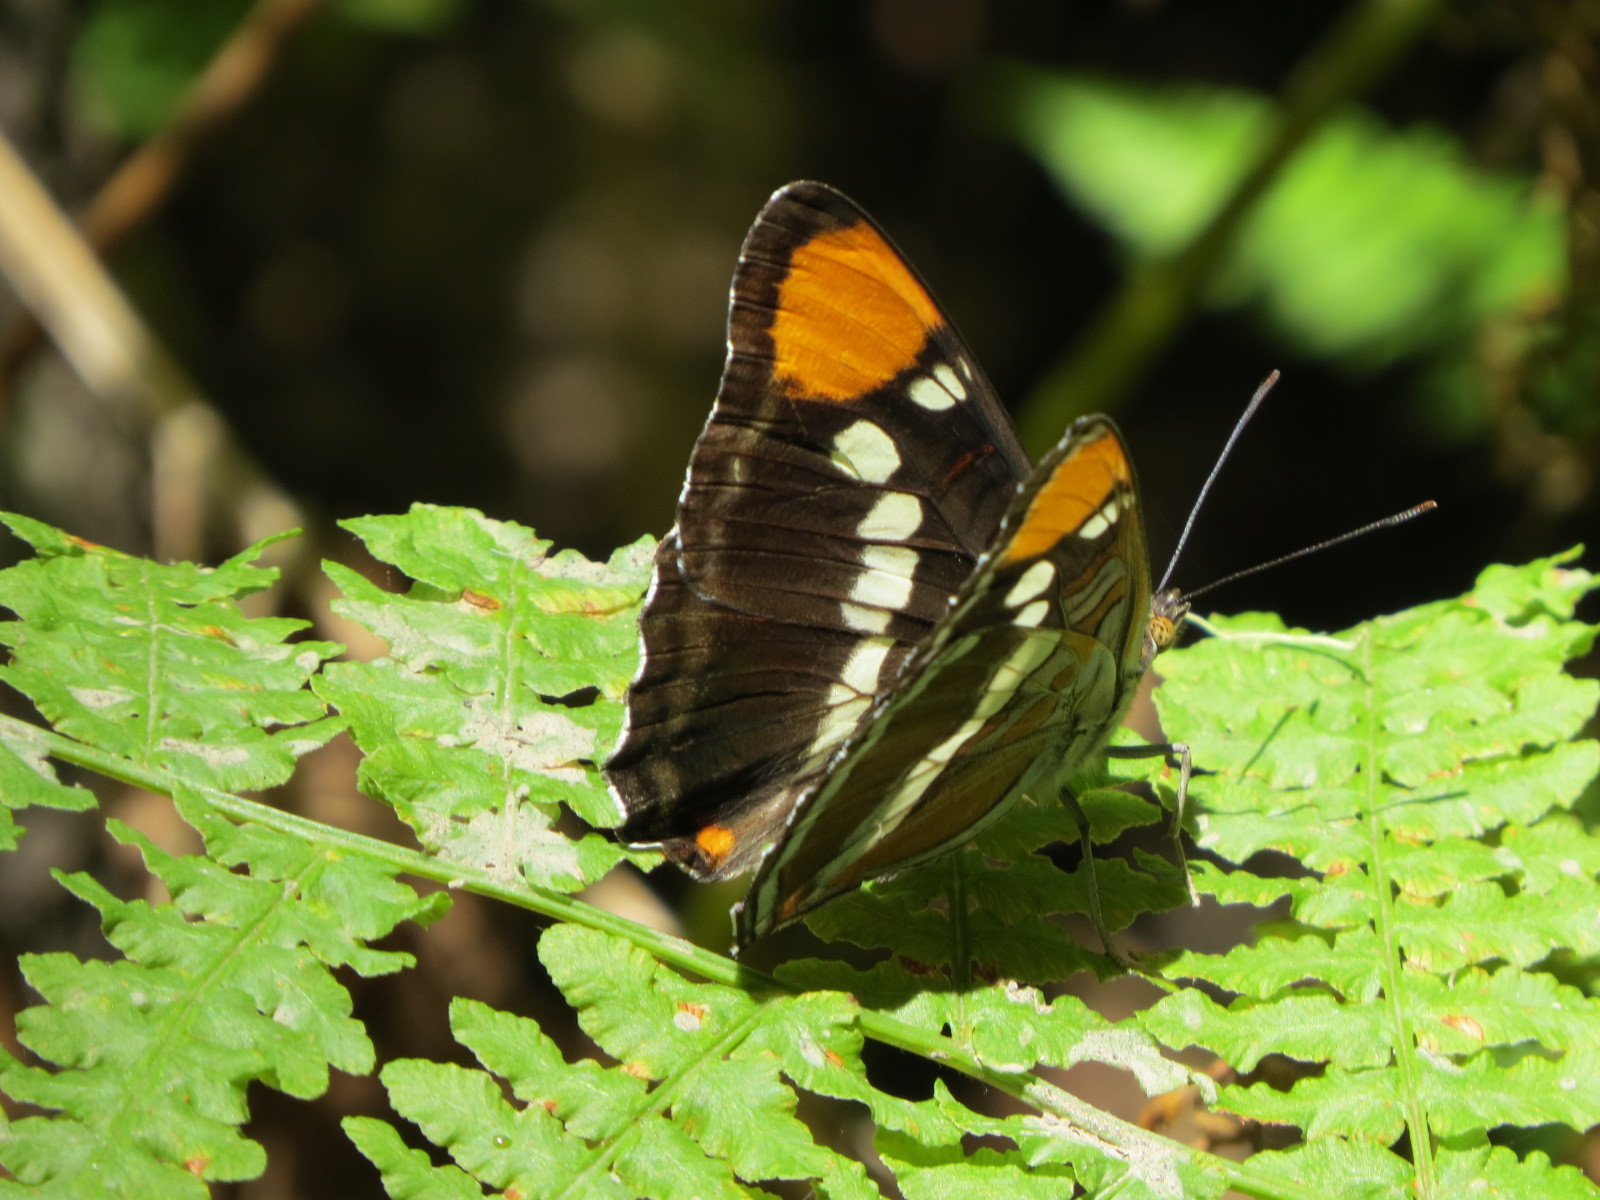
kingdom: Animalia
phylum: Arthropoda
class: Insecta
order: Lepidoptera
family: Nymphalidae
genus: Limenitis
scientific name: Limenitis bredowii
